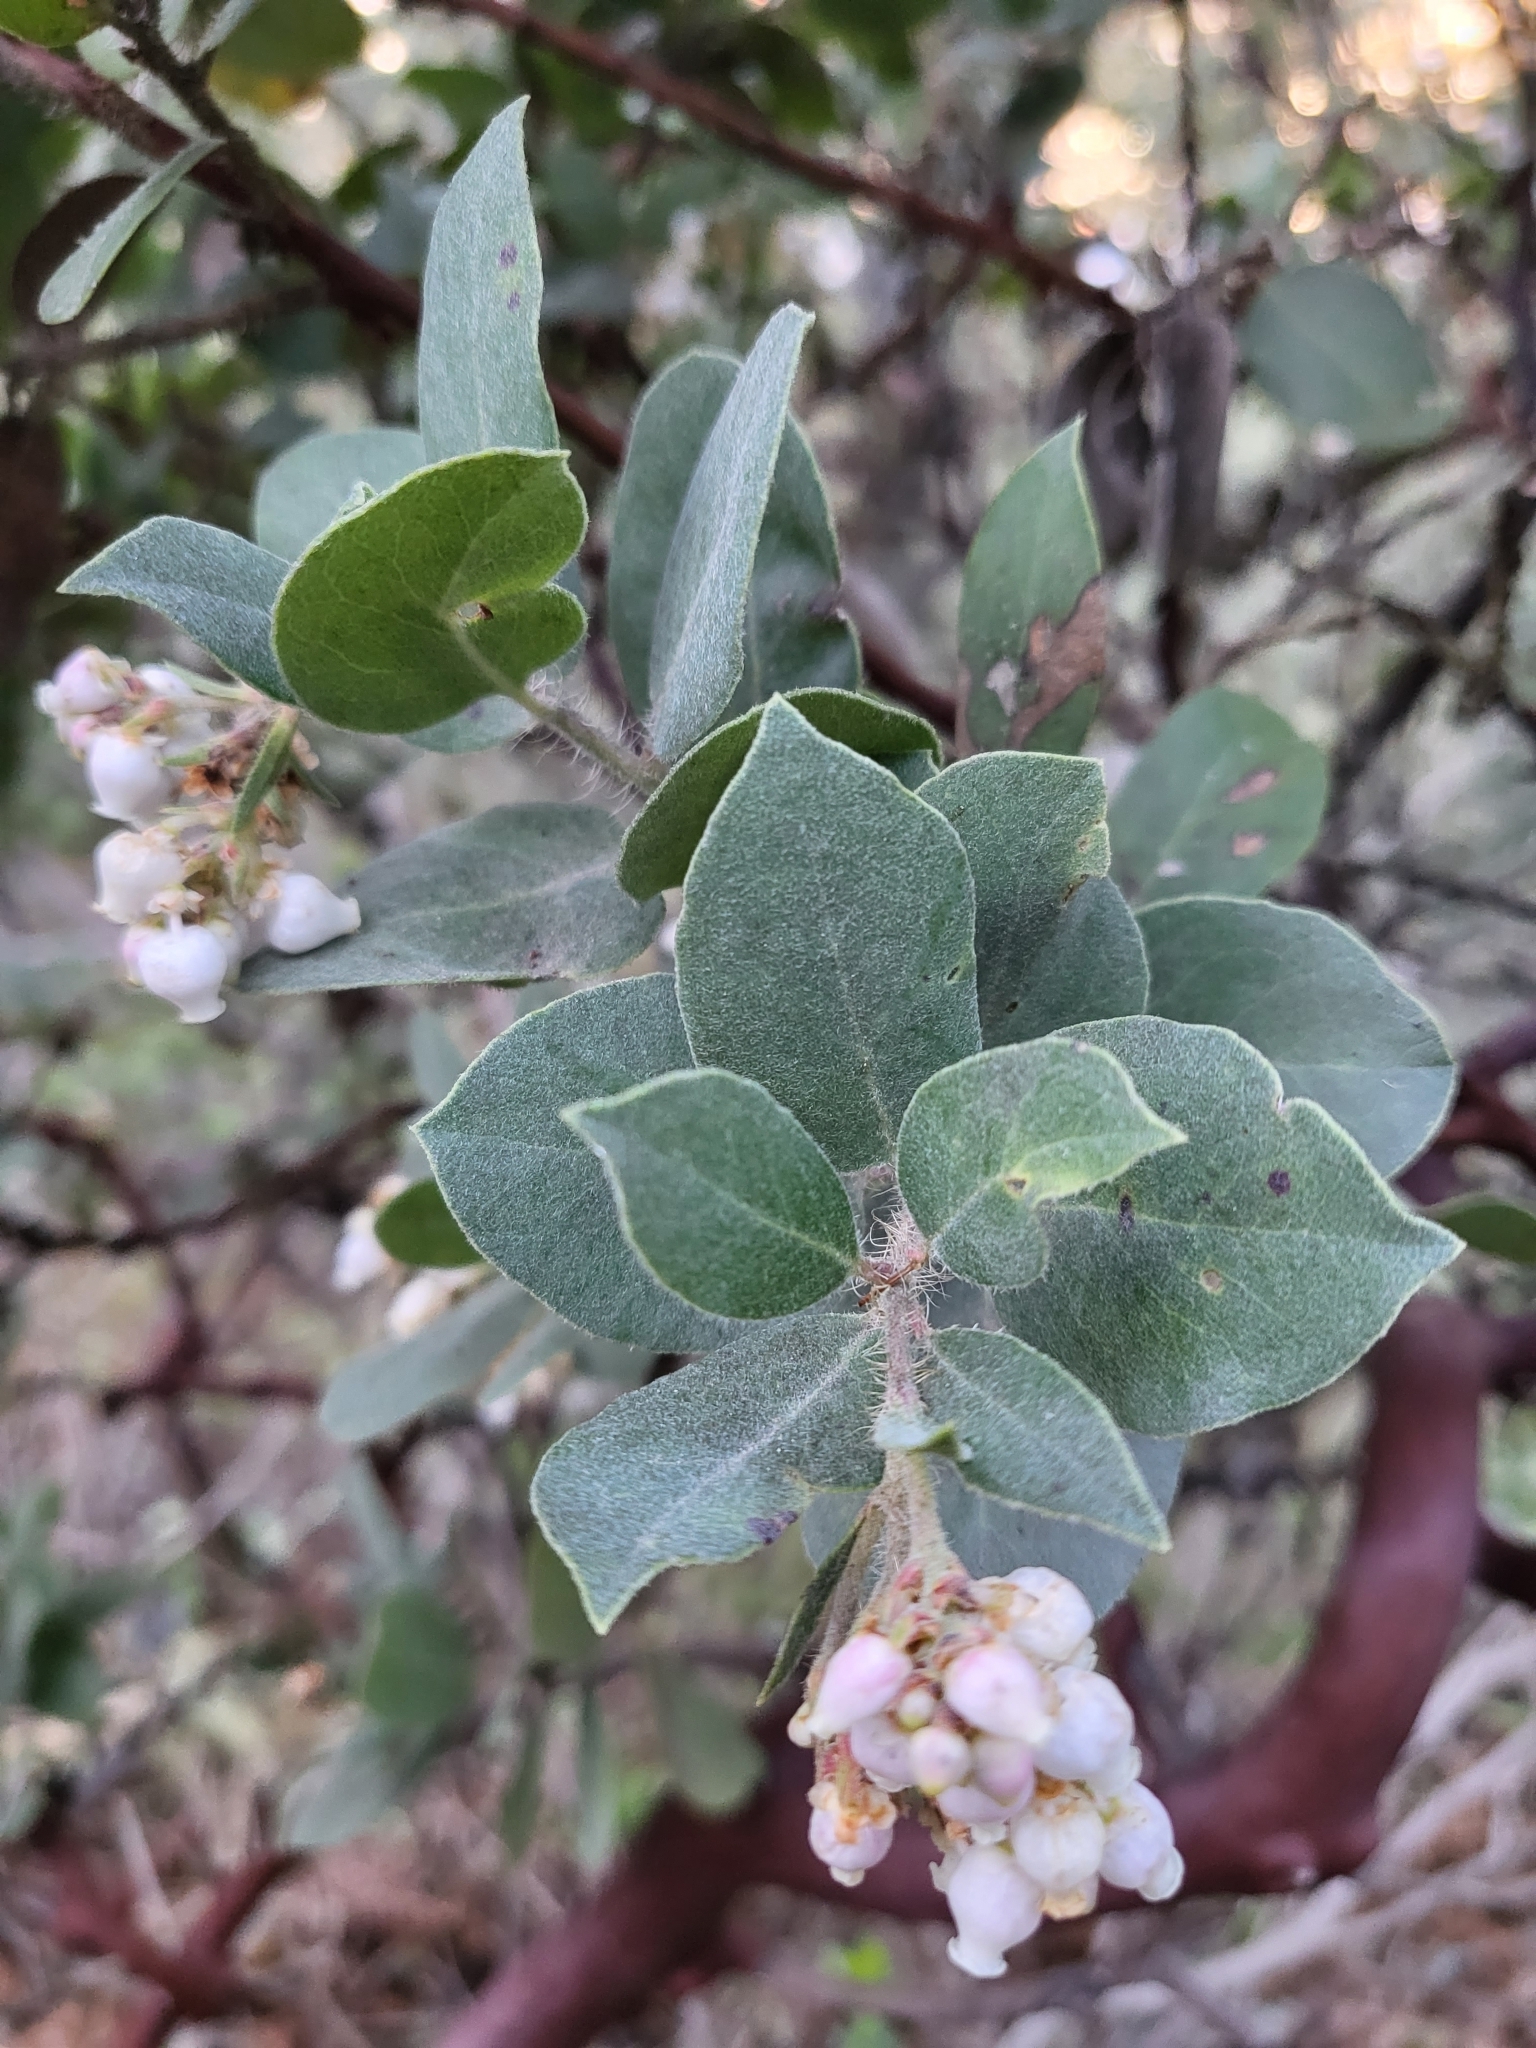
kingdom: Plantae
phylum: Tracheophyta
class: Magnoliopsida
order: Ericales
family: Ericaceae
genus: Arctostaphylos
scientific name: Arctostaphylos crustacea
